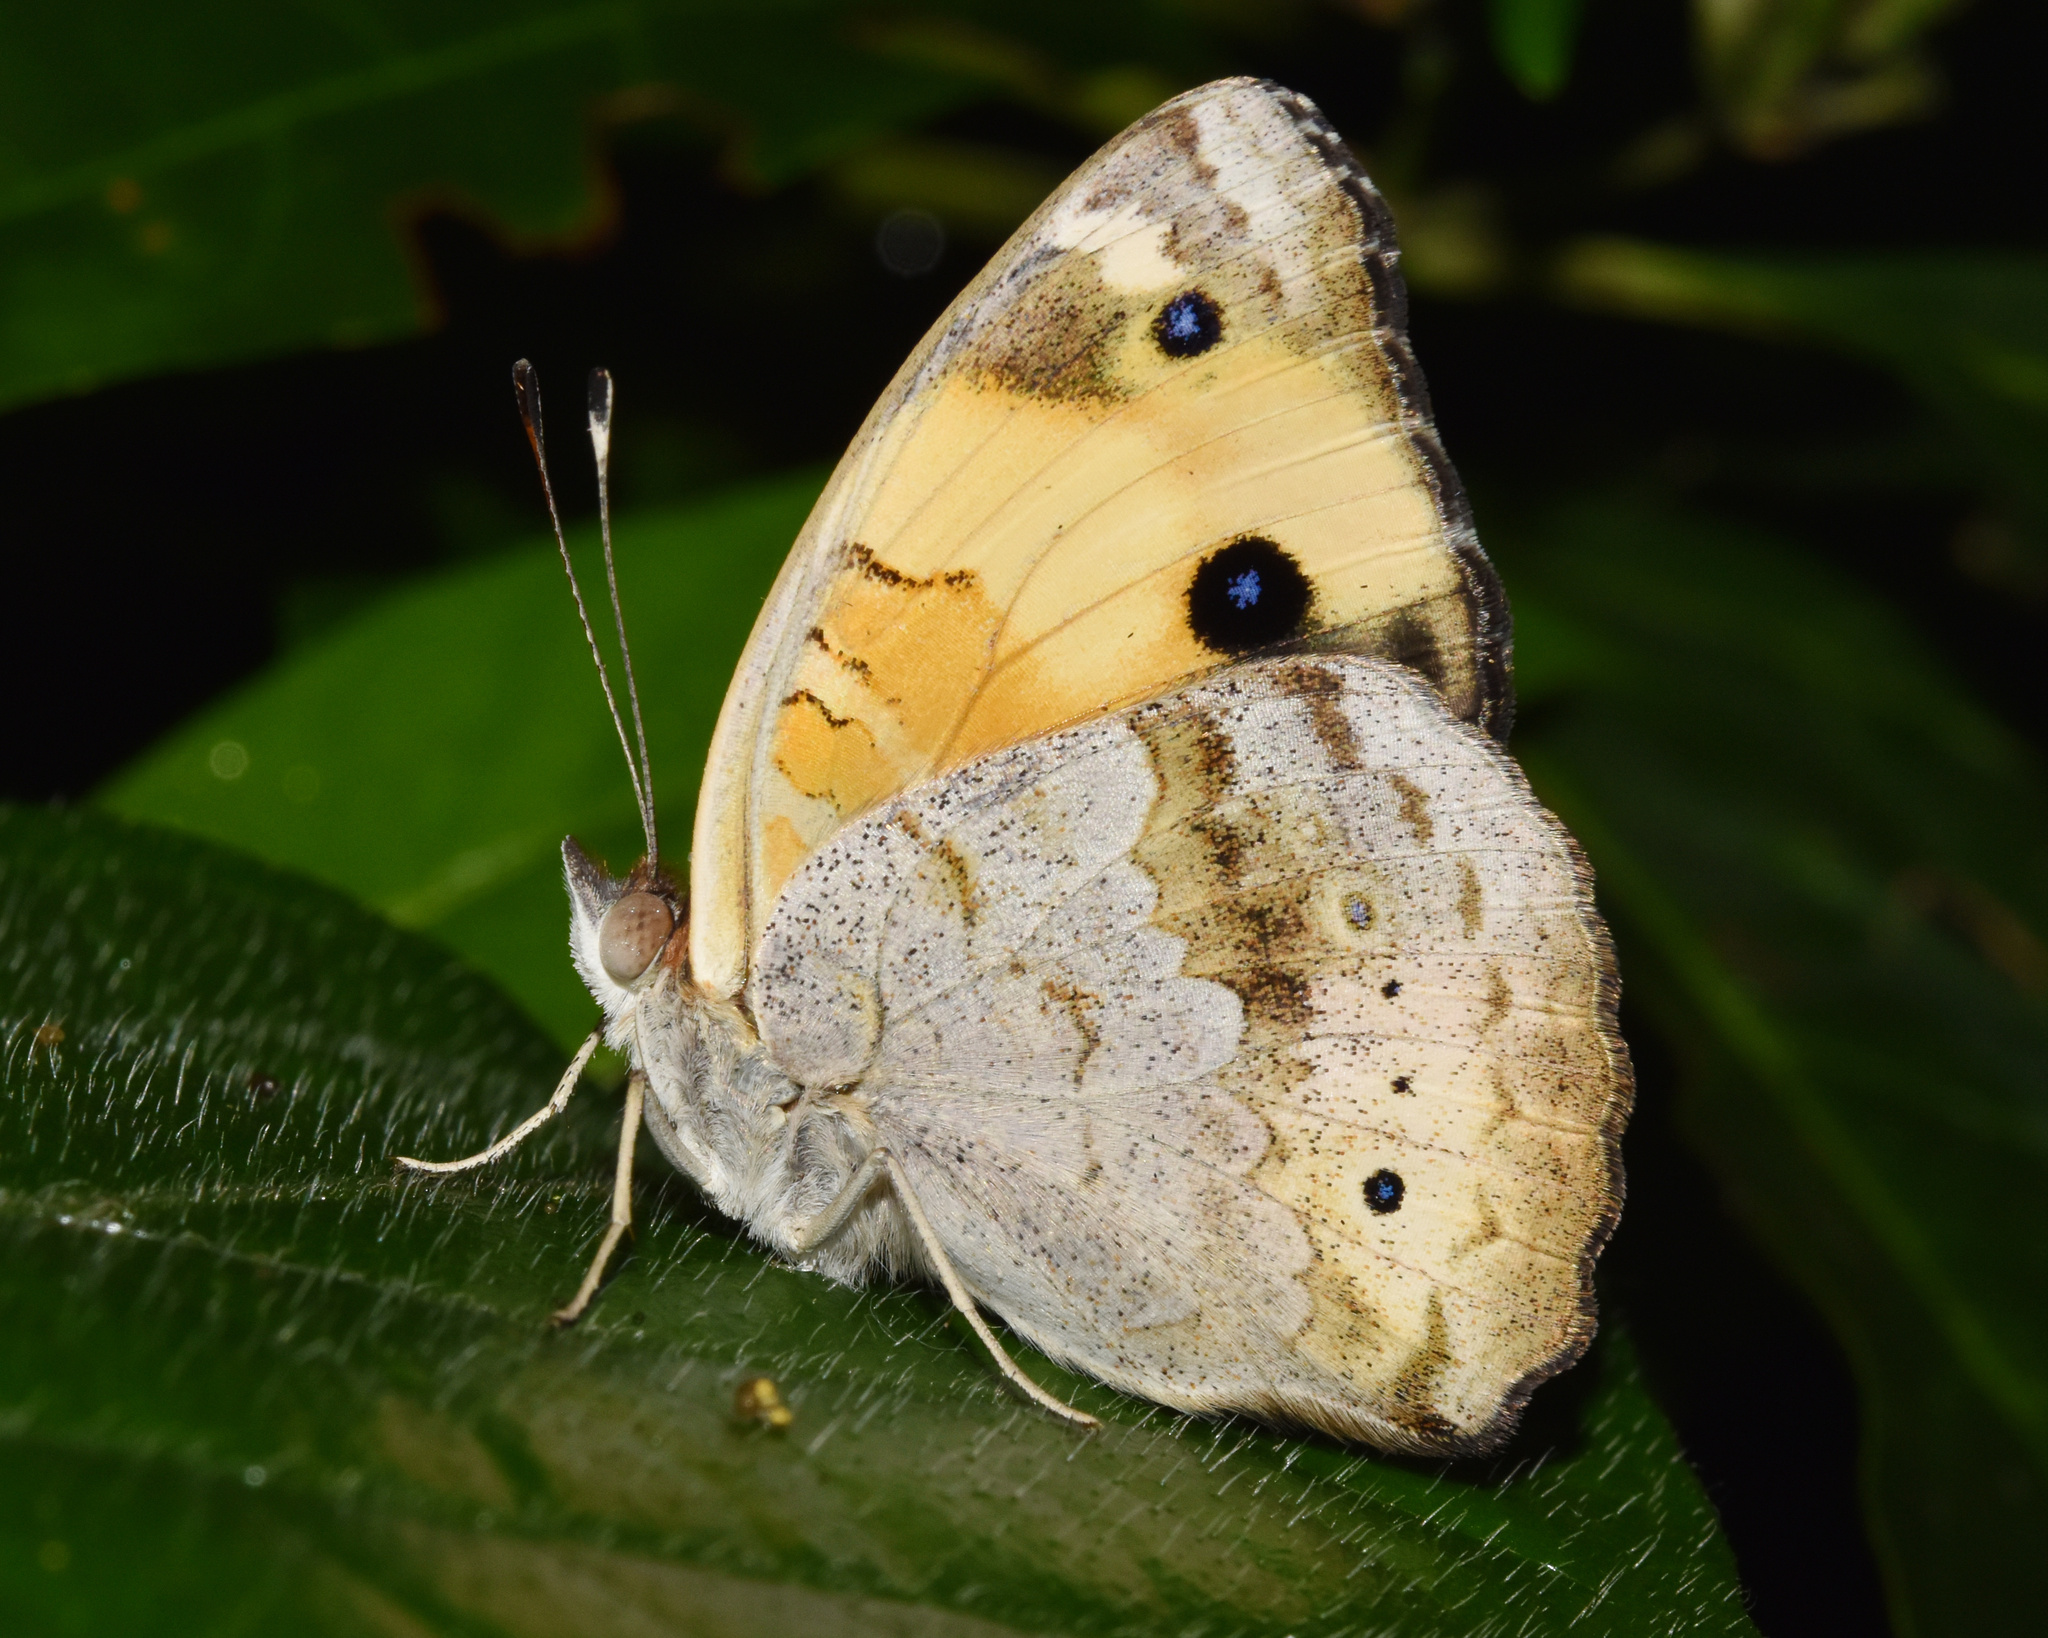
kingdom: Animalia
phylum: Arthropoda
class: Insecta
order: Lepidoptera
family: Nymphalidae
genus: Junonia
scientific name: Junonia hierta
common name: Yellow pansy
